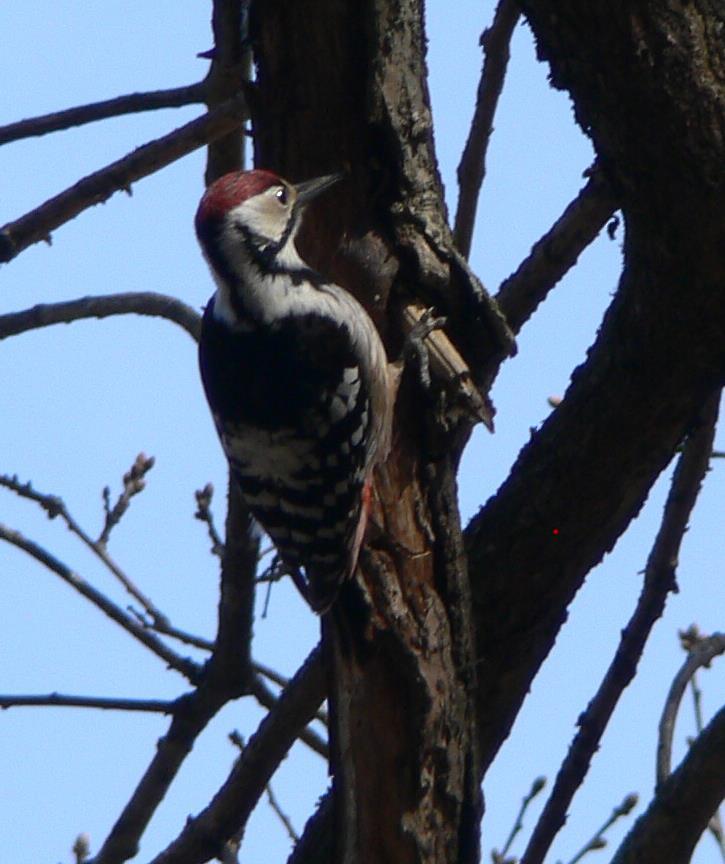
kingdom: Animalia
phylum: Chordata
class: Aves
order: Piciformes
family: Picidae
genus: Dendrocopos
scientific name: Dendrocopos leucotos
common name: White-backed woodpecker
